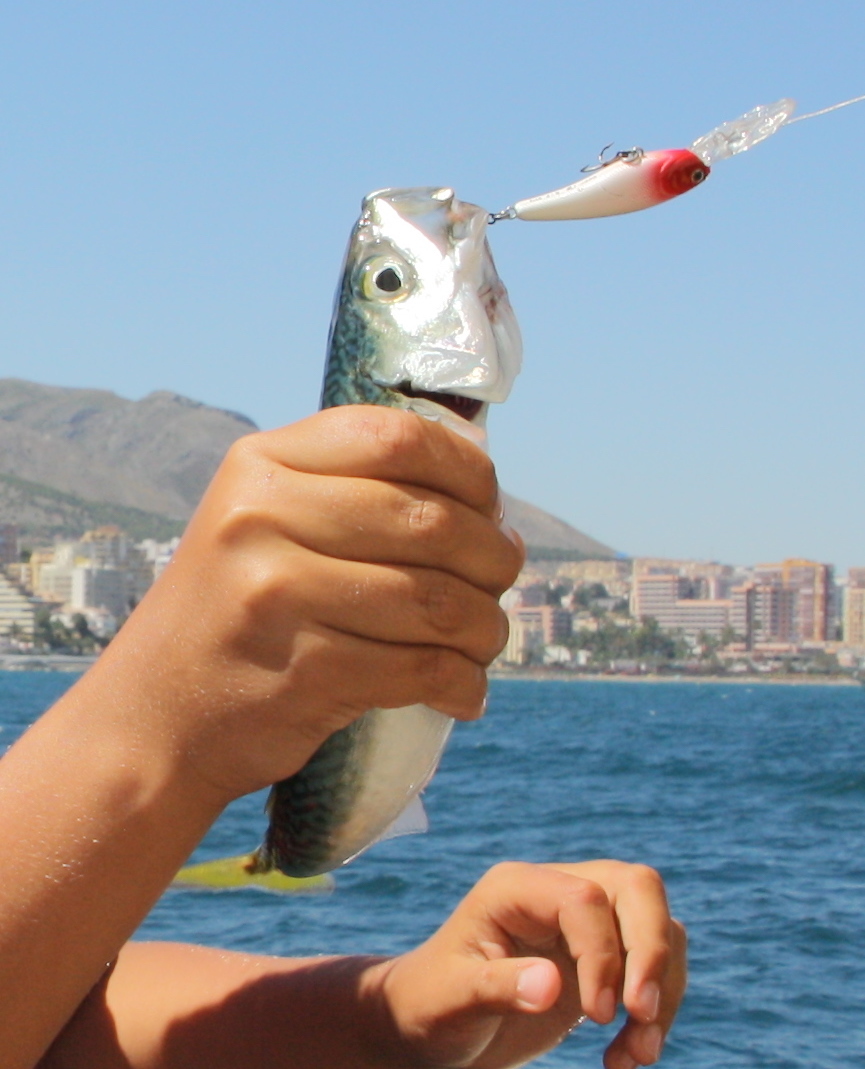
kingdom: Animalia
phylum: Chordata
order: Perciformes
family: Scombridae
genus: Scomber
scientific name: Scomber scombrus
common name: Mackerel
